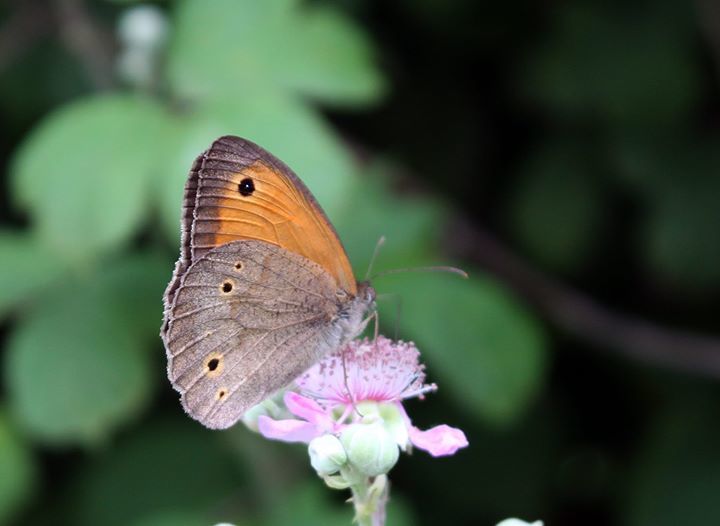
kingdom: Animalia
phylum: Arthropoda
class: Insecta
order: Lepidoptera
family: Nymphalidae
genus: Maniola
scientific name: Maniola jurtina
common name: Meadow brown
